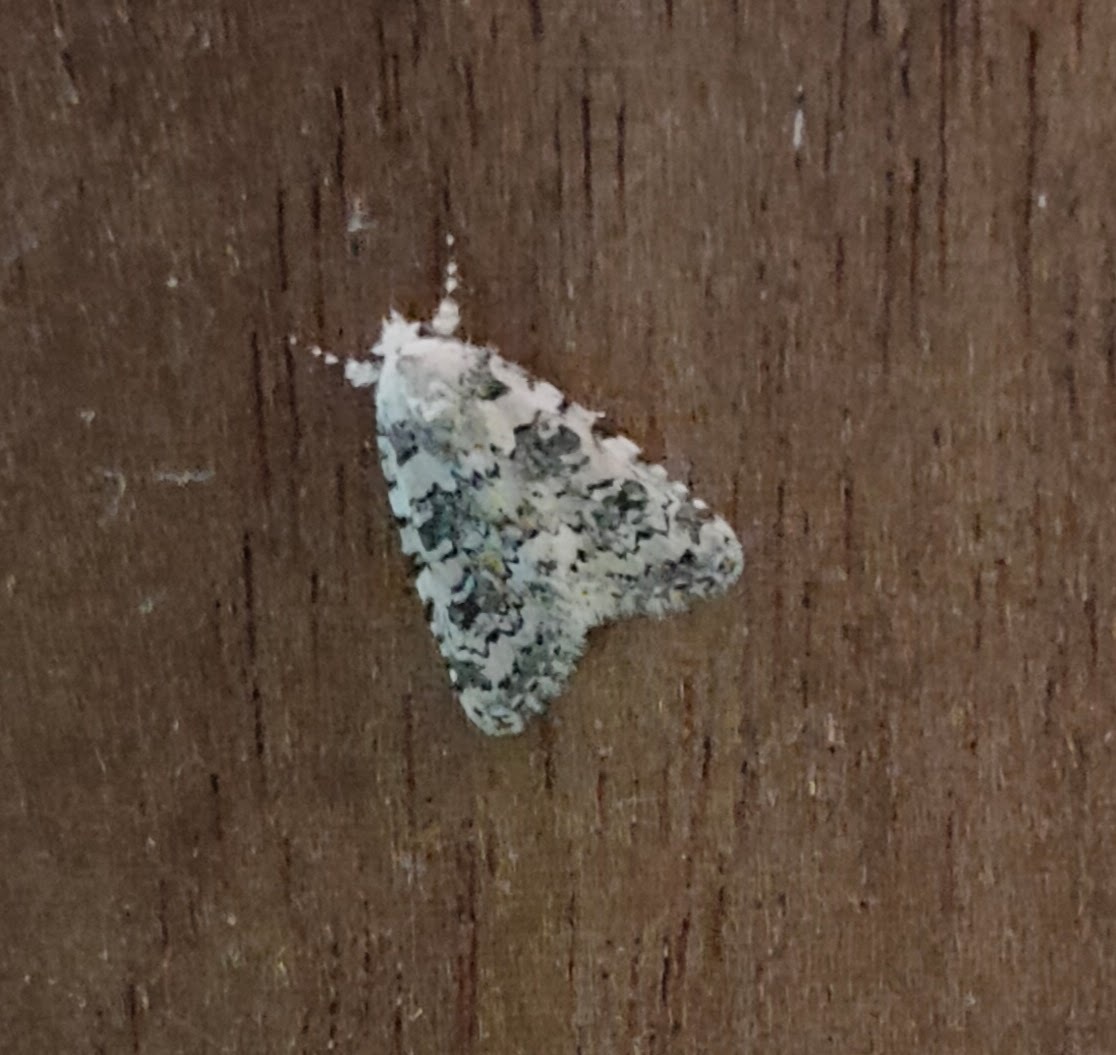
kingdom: Animalia
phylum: Arthropoda
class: Insecta
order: Lepidoptera
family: Noctuidae
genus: Bryophila
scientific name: Bryophila domestica
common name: Marbled beauty
